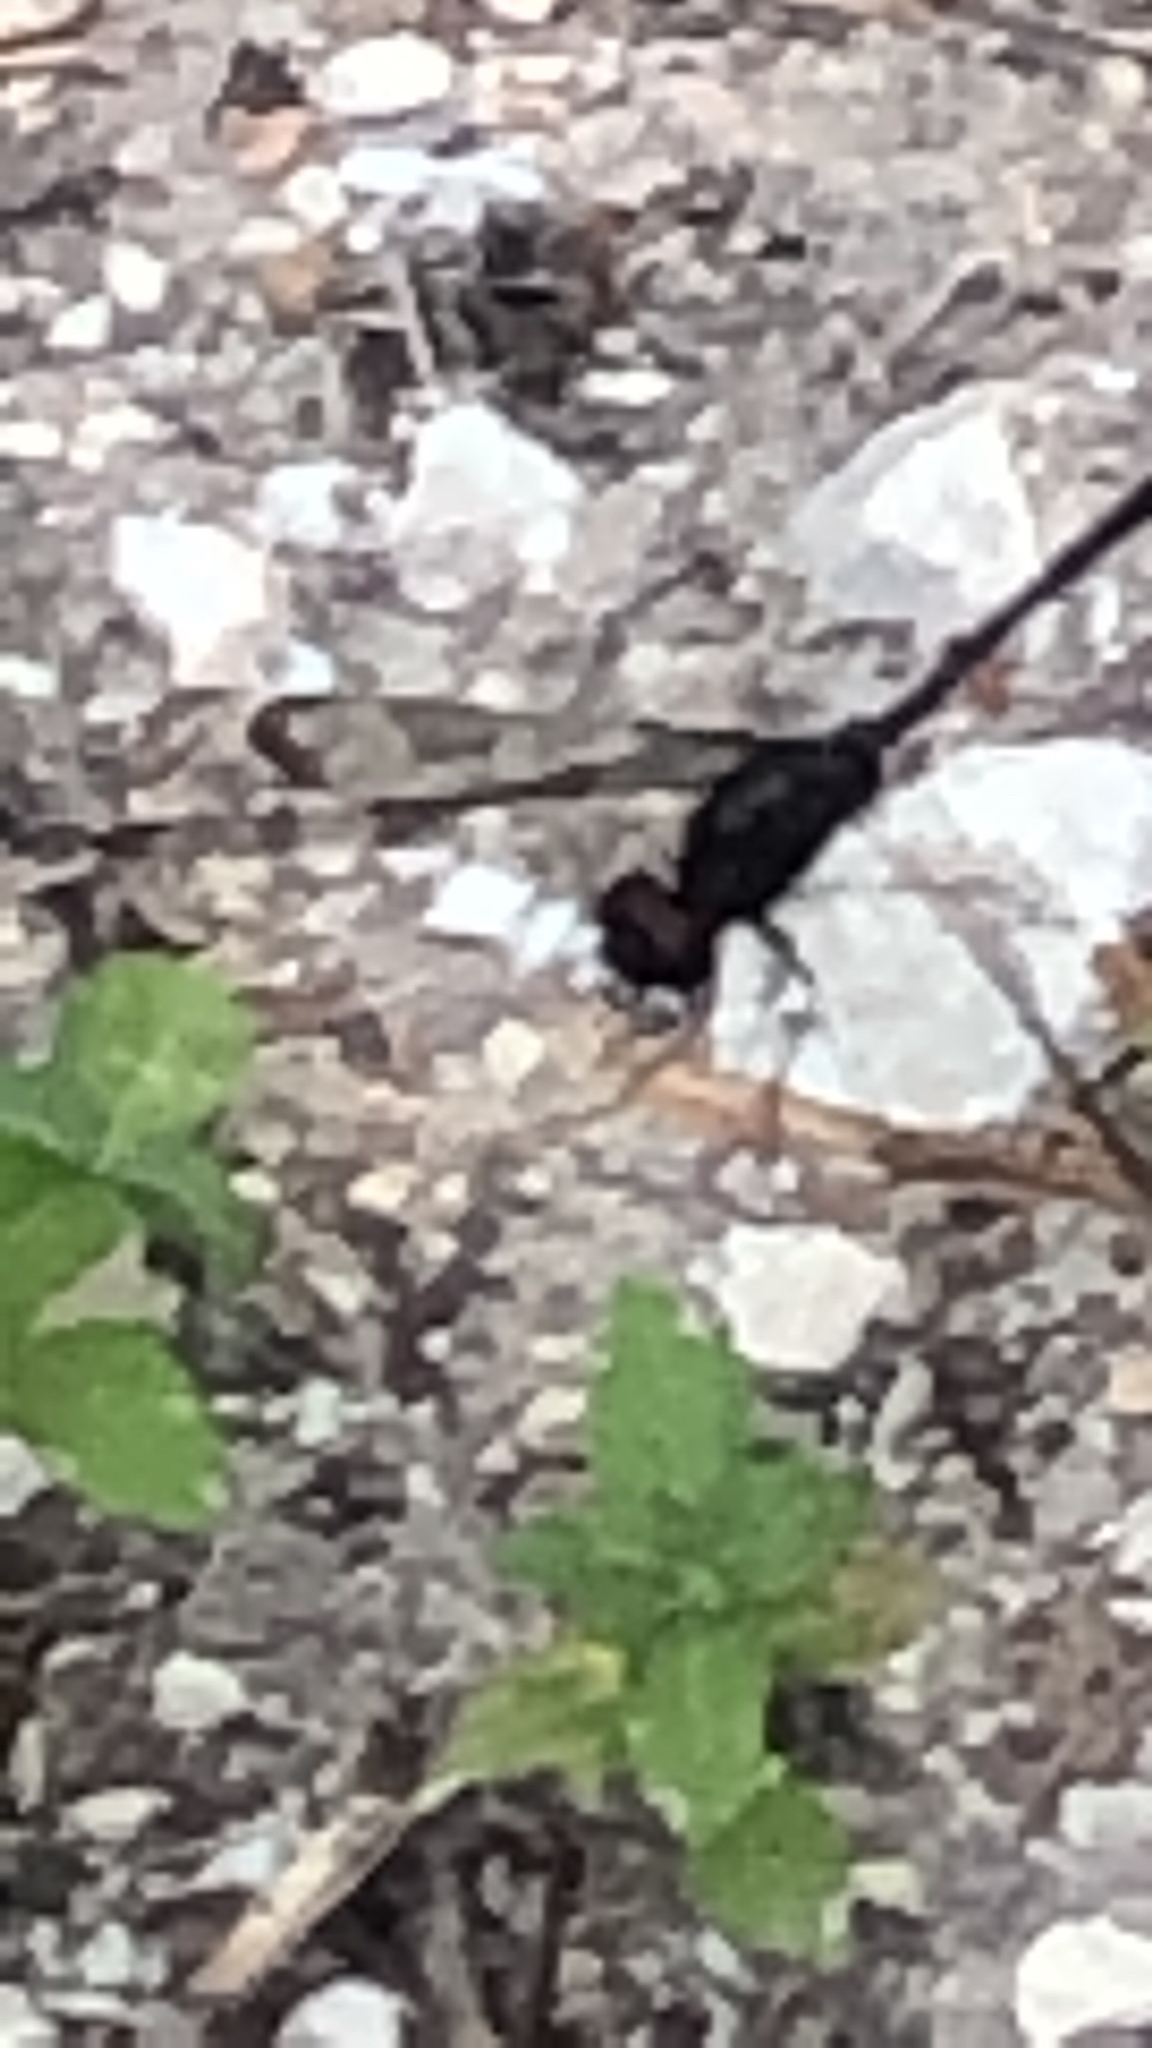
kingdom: Animalia
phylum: Arthropoda
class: Insecta
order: Odonata
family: Libellulidae
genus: Erythemis
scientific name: Erythemis plebeja
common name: Pin-tailed pondhawk
